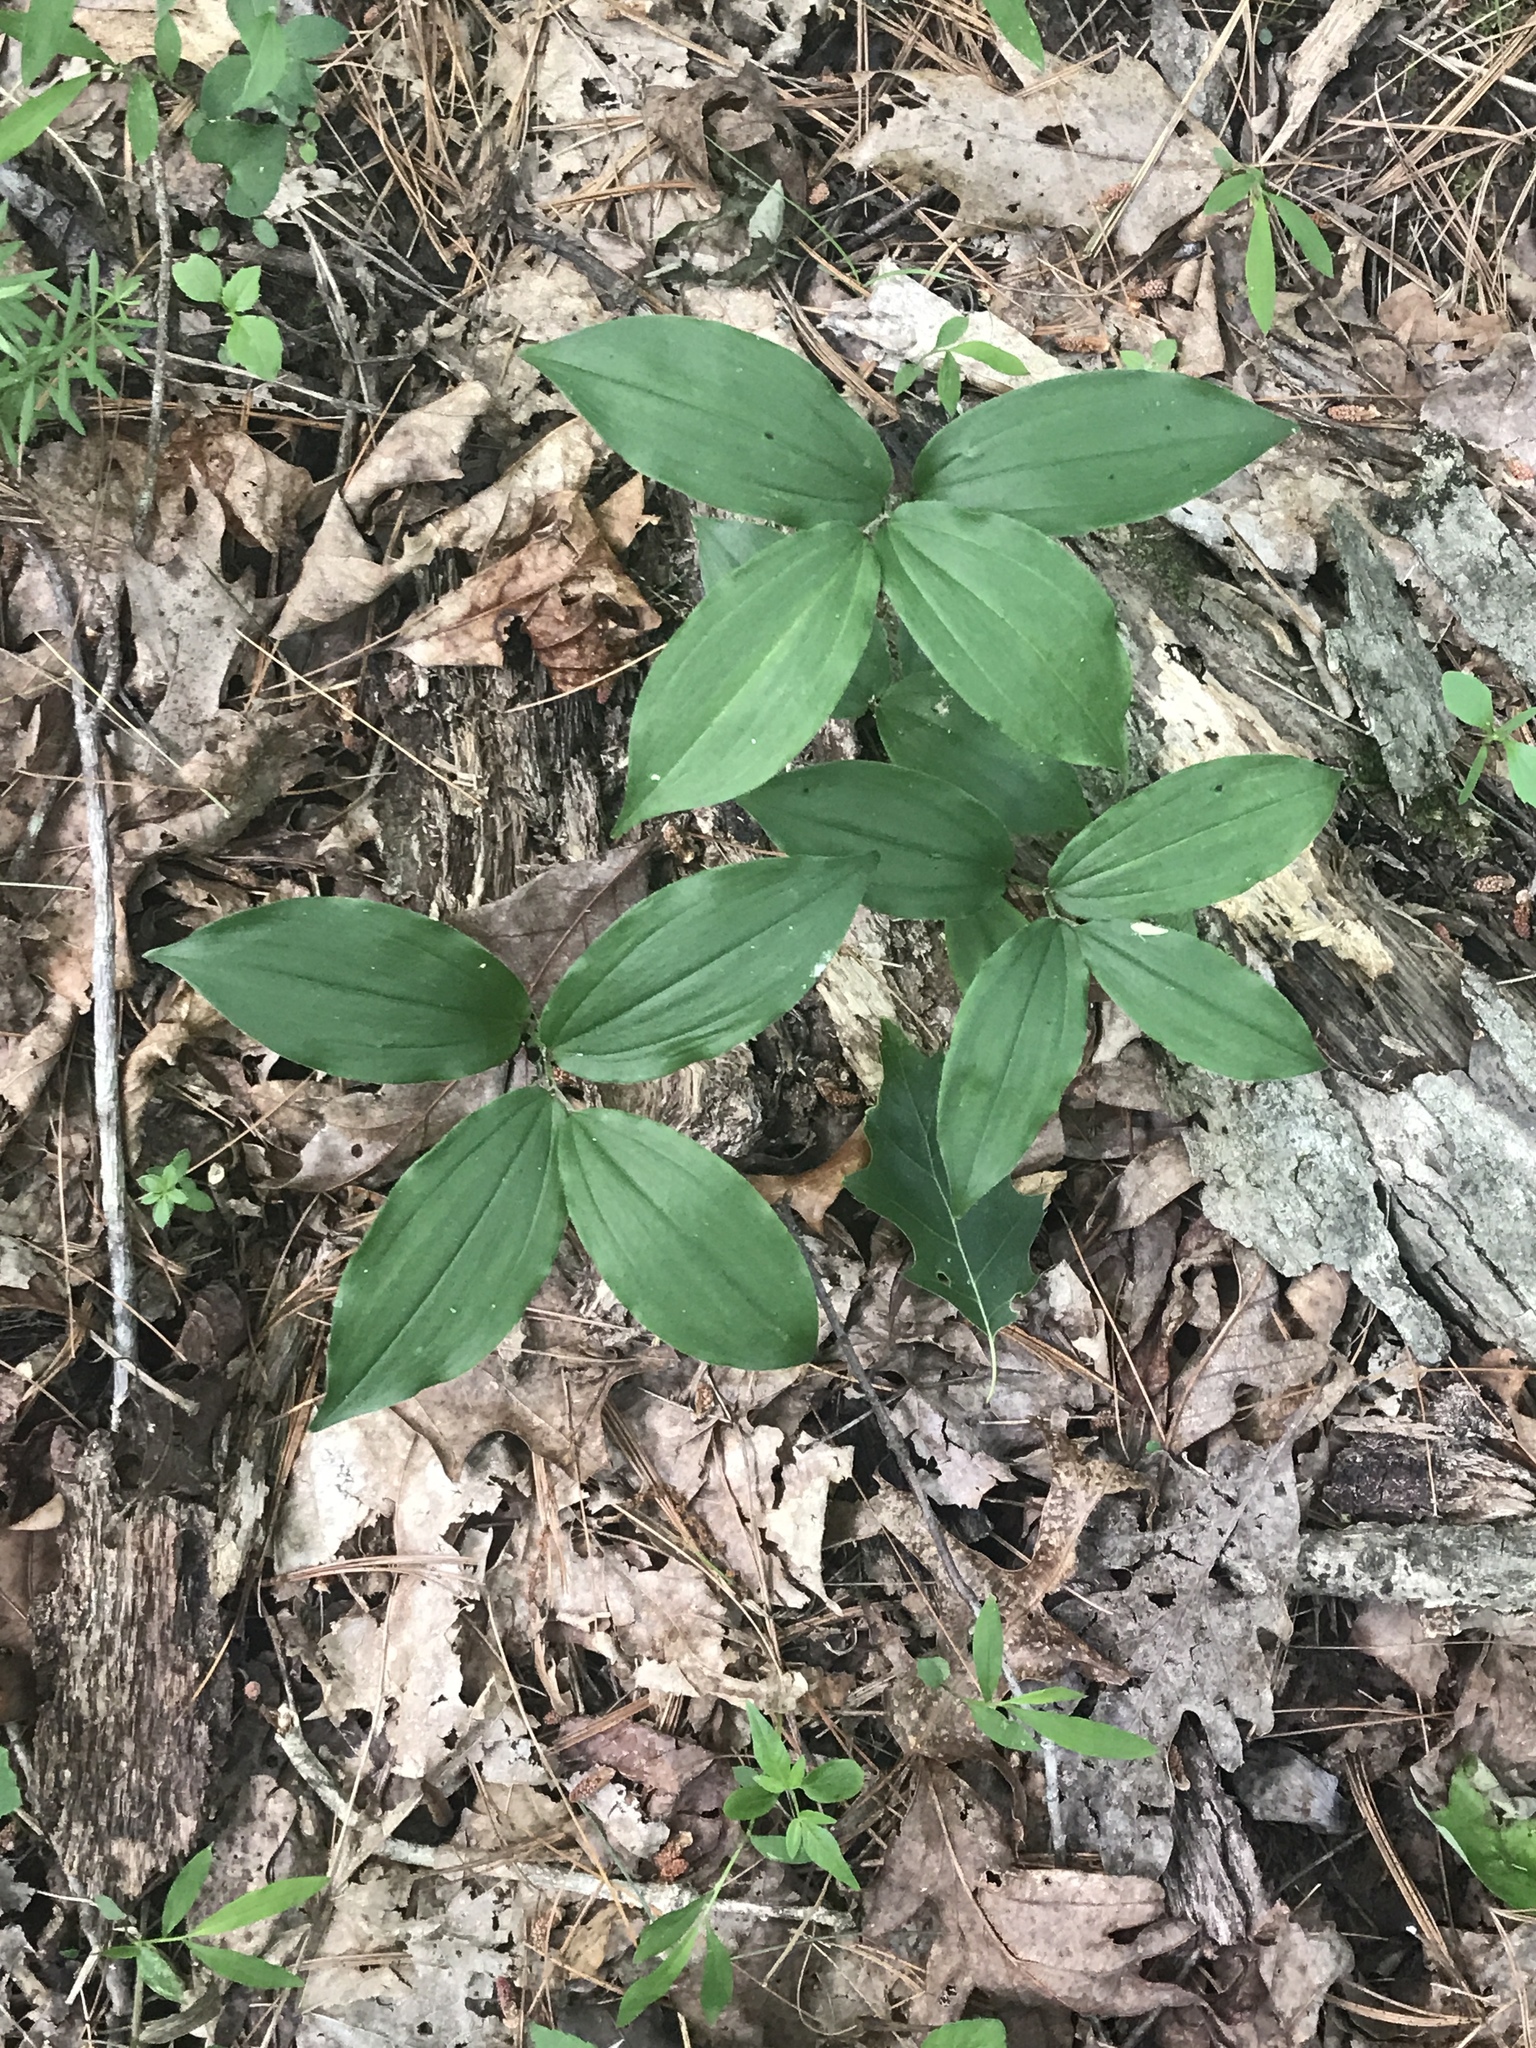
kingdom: Plantae
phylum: Tracheophyta
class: Liliopsida
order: Asparagales
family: Asparagaceae
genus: Maianthemum
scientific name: Maianthemum racemosum
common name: False spikenard
